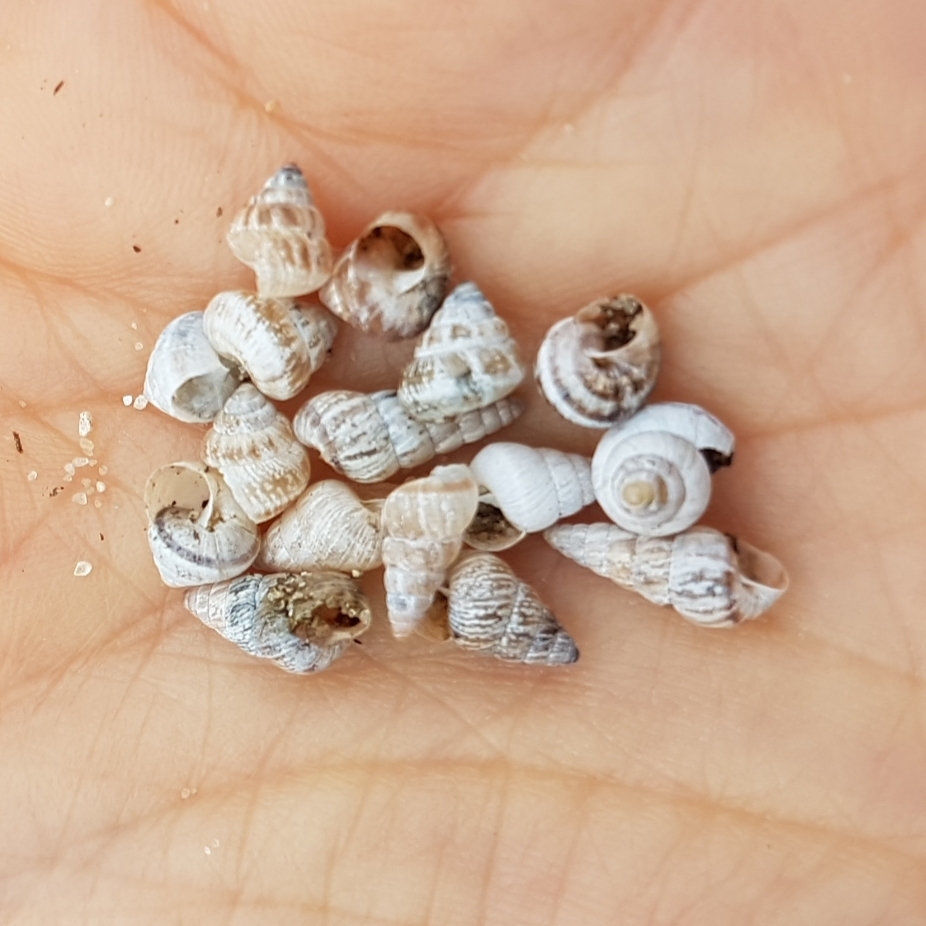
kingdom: Animalia
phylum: Mollusca
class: Gastropoda
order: Stylommatophora
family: Geomitridae
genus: Cochlicella
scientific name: Cochlicella conoidea
